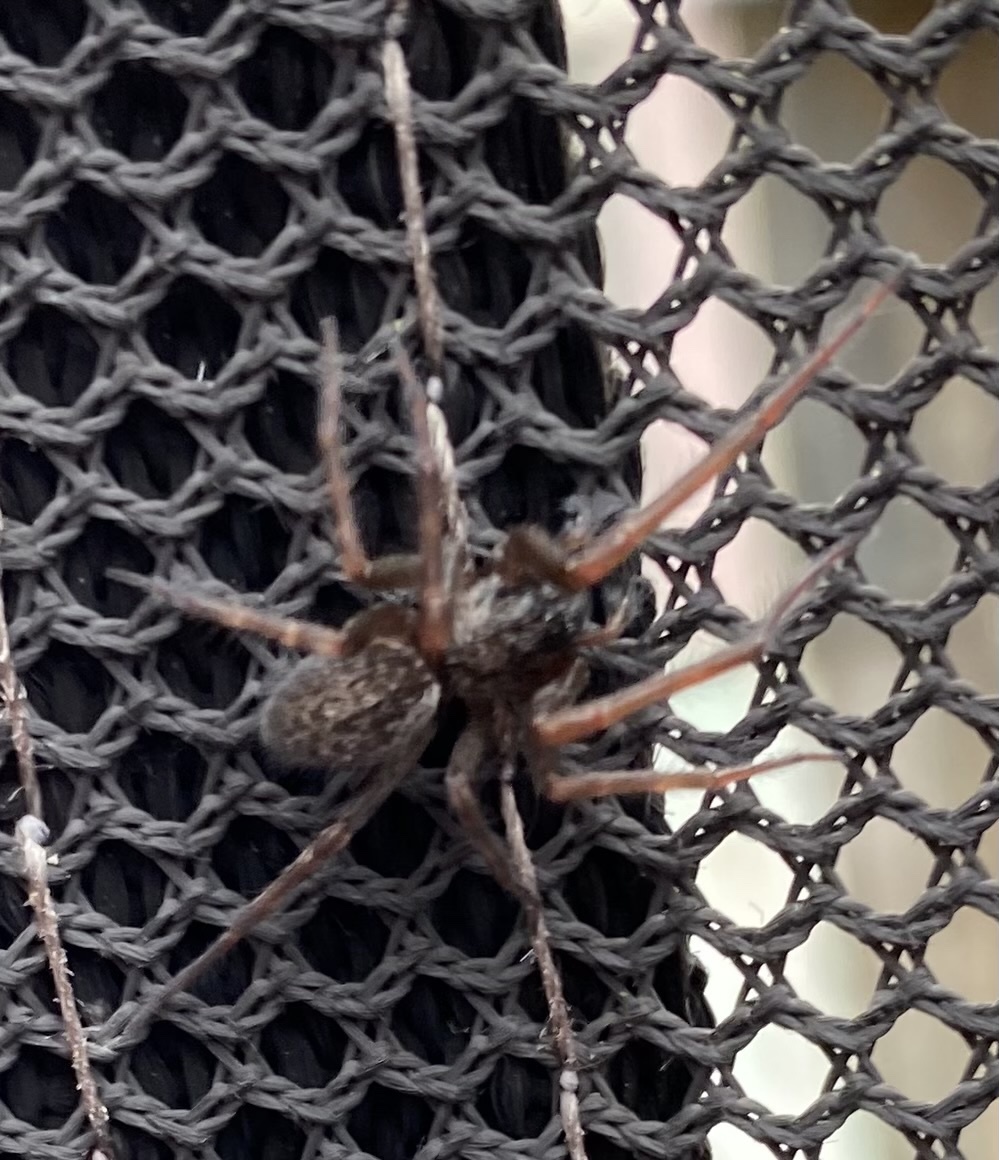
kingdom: Animalia
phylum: Arthropoda
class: Arachnida
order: Araneae
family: Desidae
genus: Badumna
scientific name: Badumna longinqua
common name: Gray house spider
